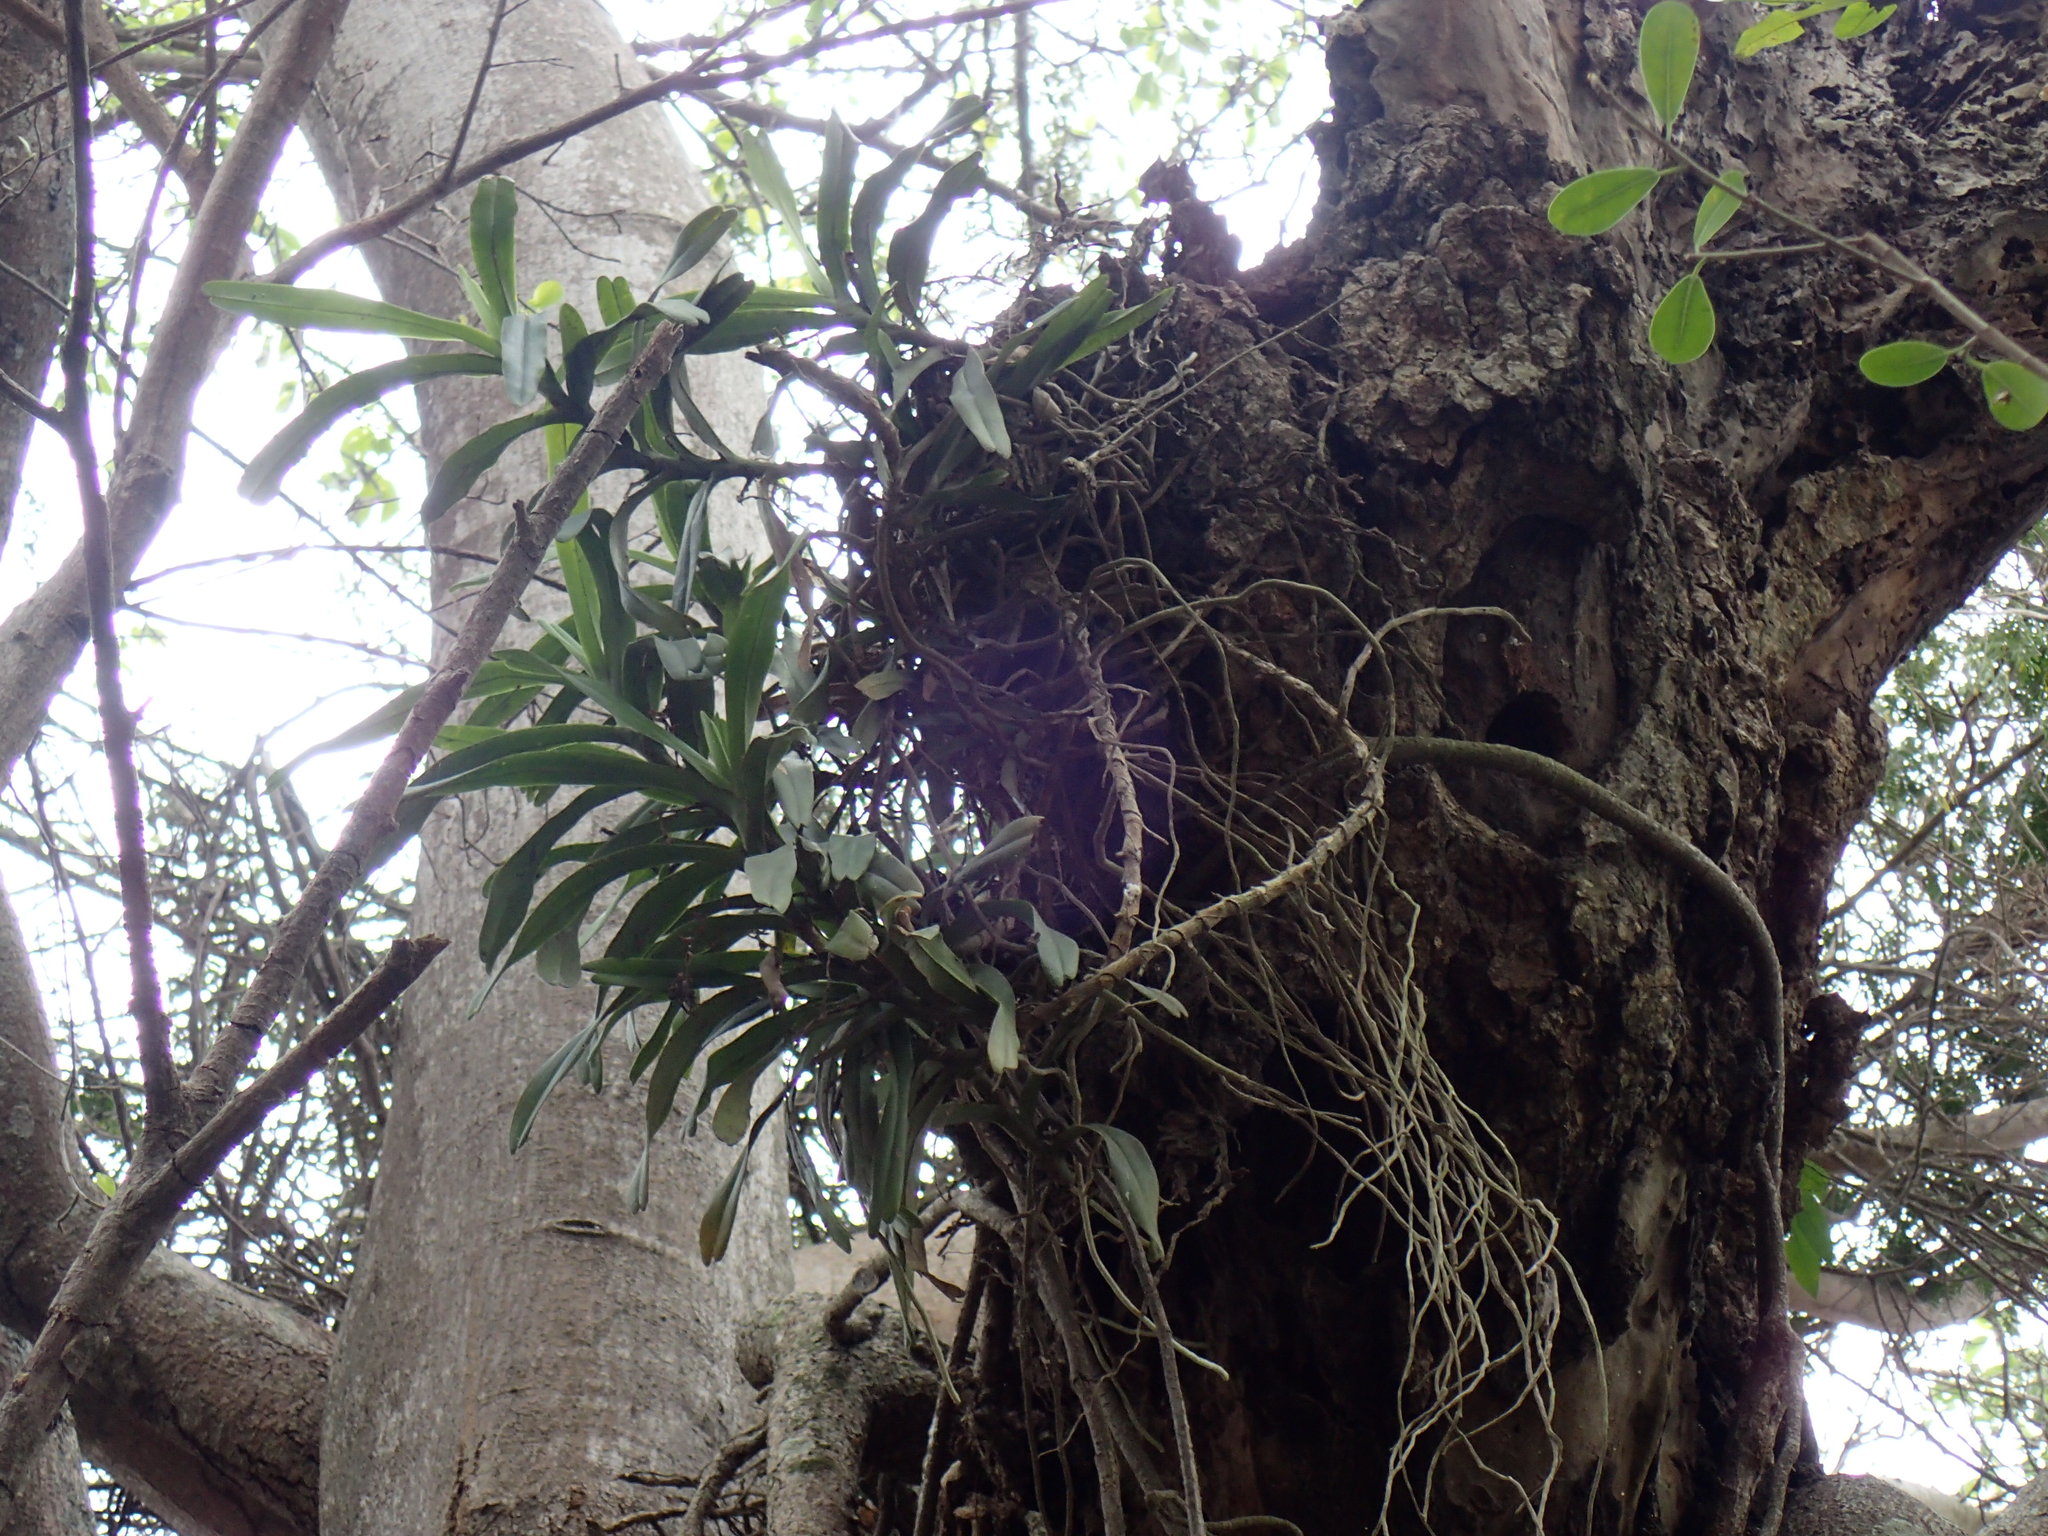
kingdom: Plantae
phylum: Tracheophyta
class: Liliopsida
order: Asparagales
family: Orchidaceae
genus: Cyrtorchis
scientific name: Cyrtorchis arcuata
